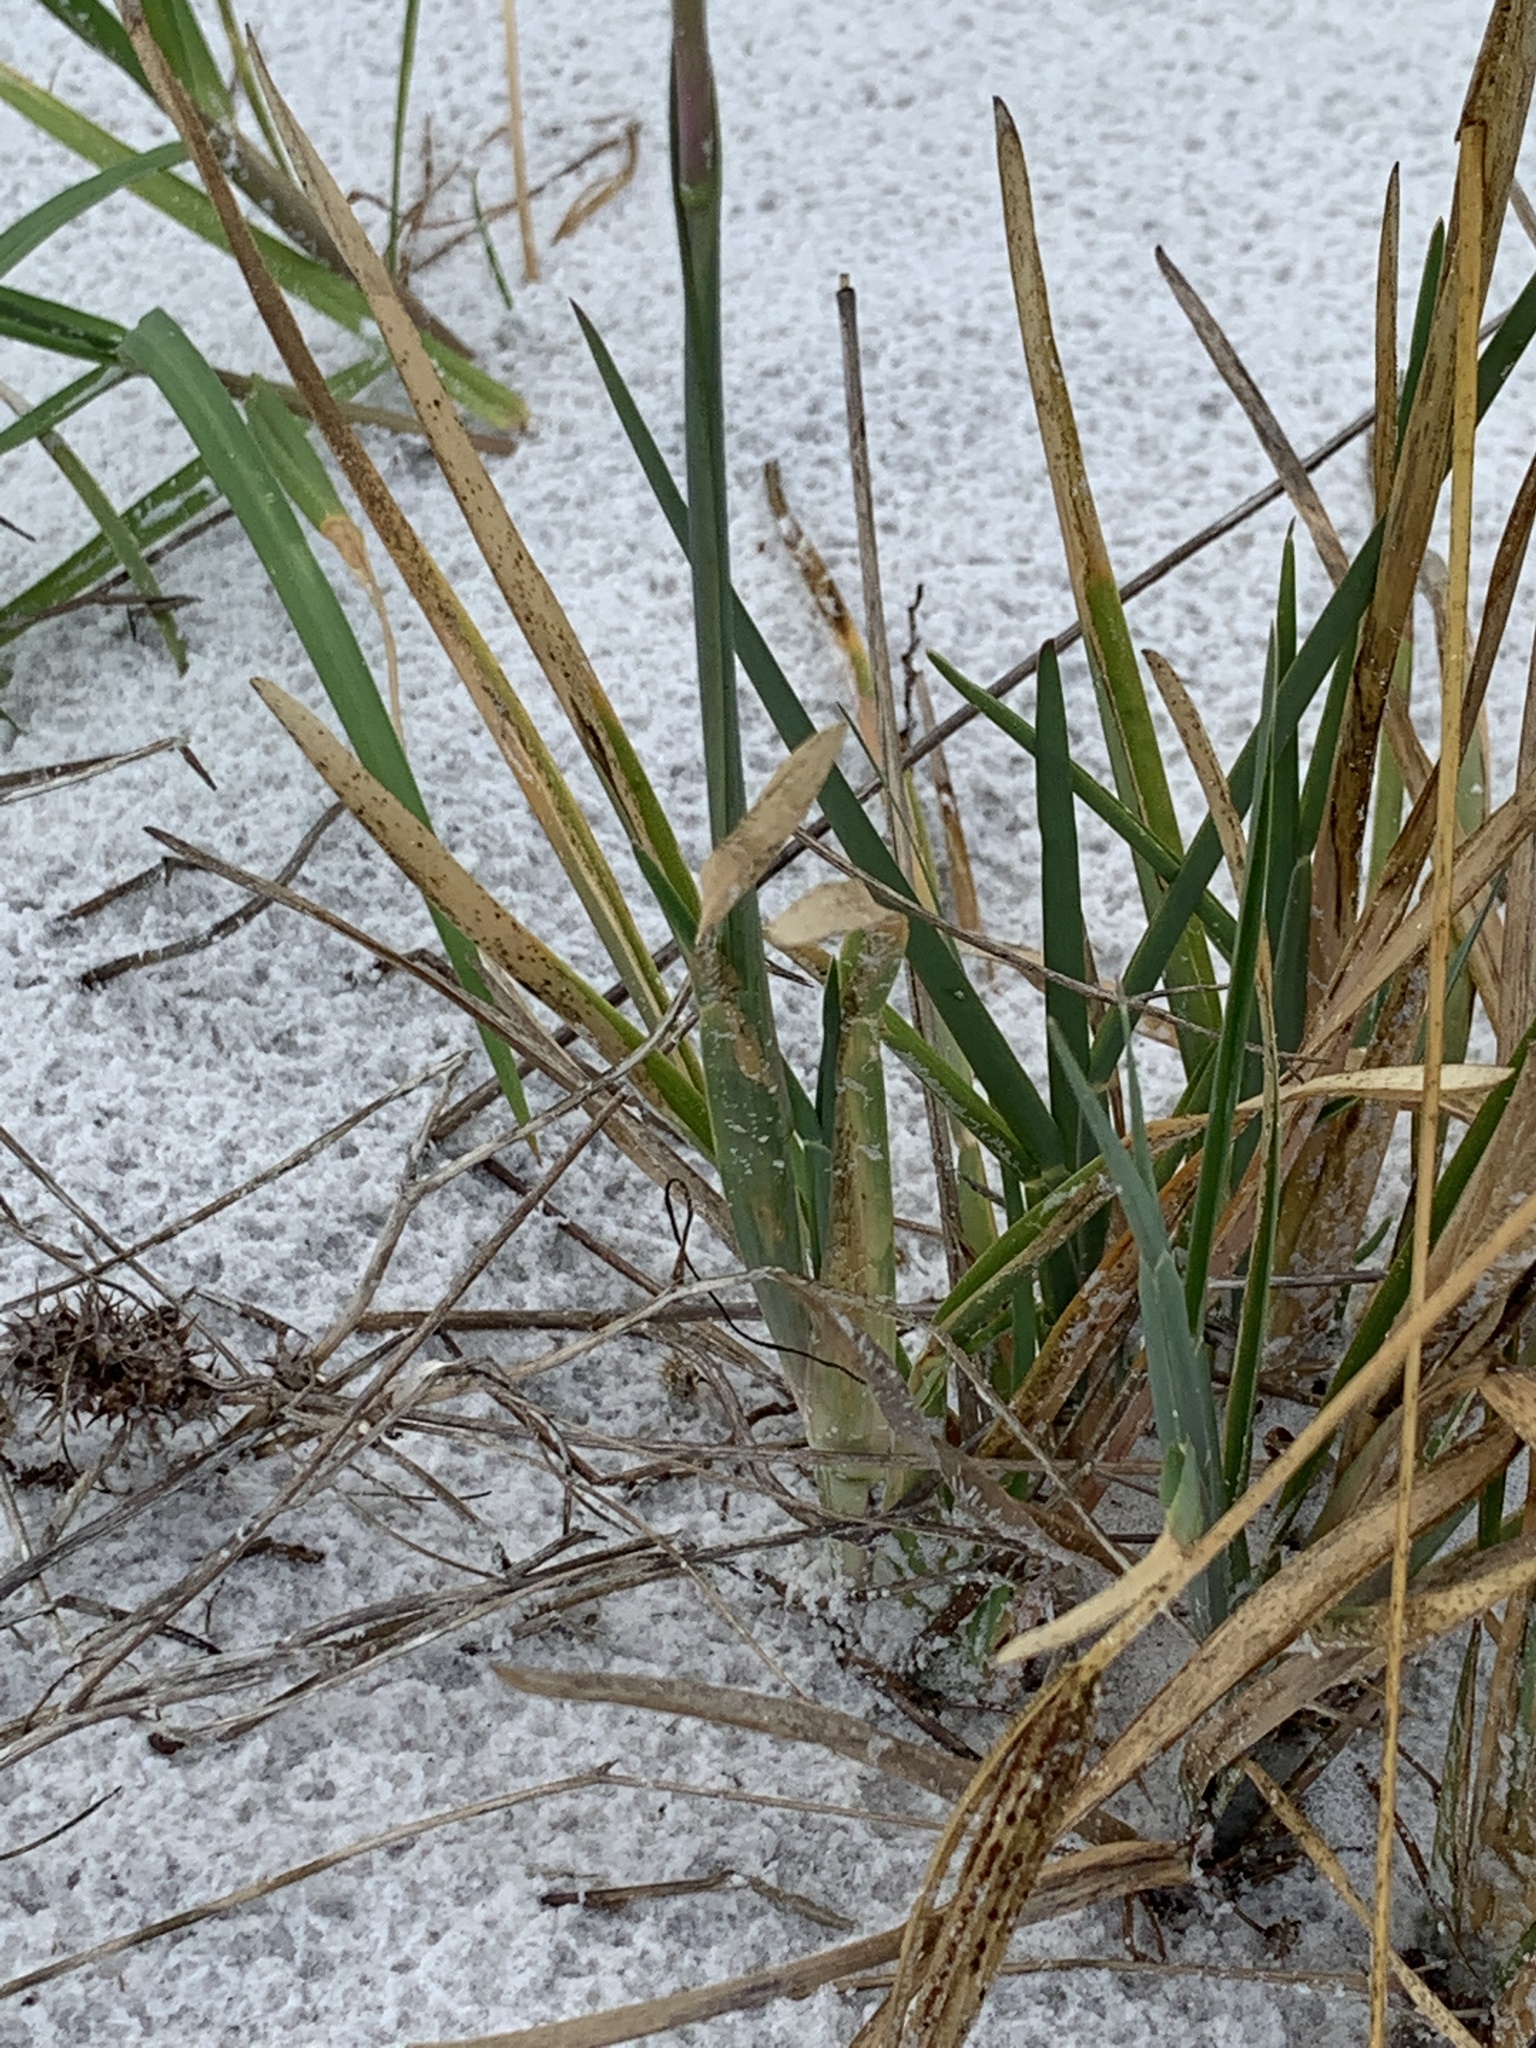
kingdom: Plantae
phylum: Tracheophyta
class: Liliopsida
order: Poales
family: Poaceae
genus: Eustachys
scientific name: Eustachys glauca
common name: Saltmarsh finger grass
